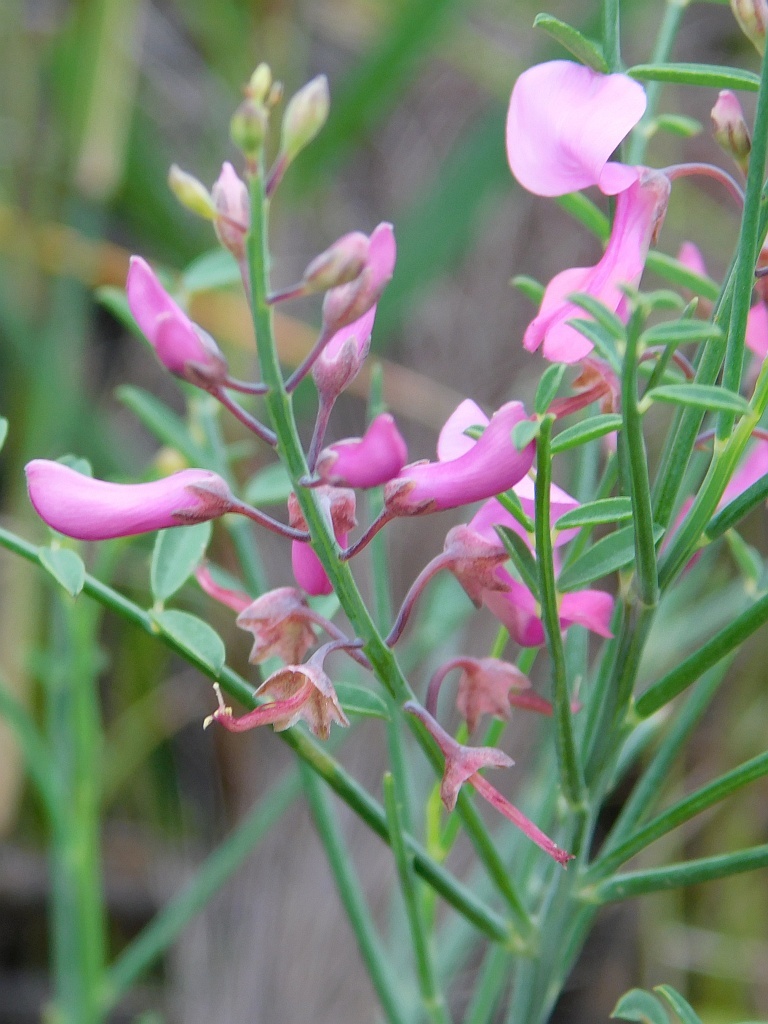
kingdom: Plantae
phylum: Tracheophyta
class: Magnoliopsida
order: Fabales
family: Fabaceae
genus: Indigofera
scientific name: Indigofera filifolia
